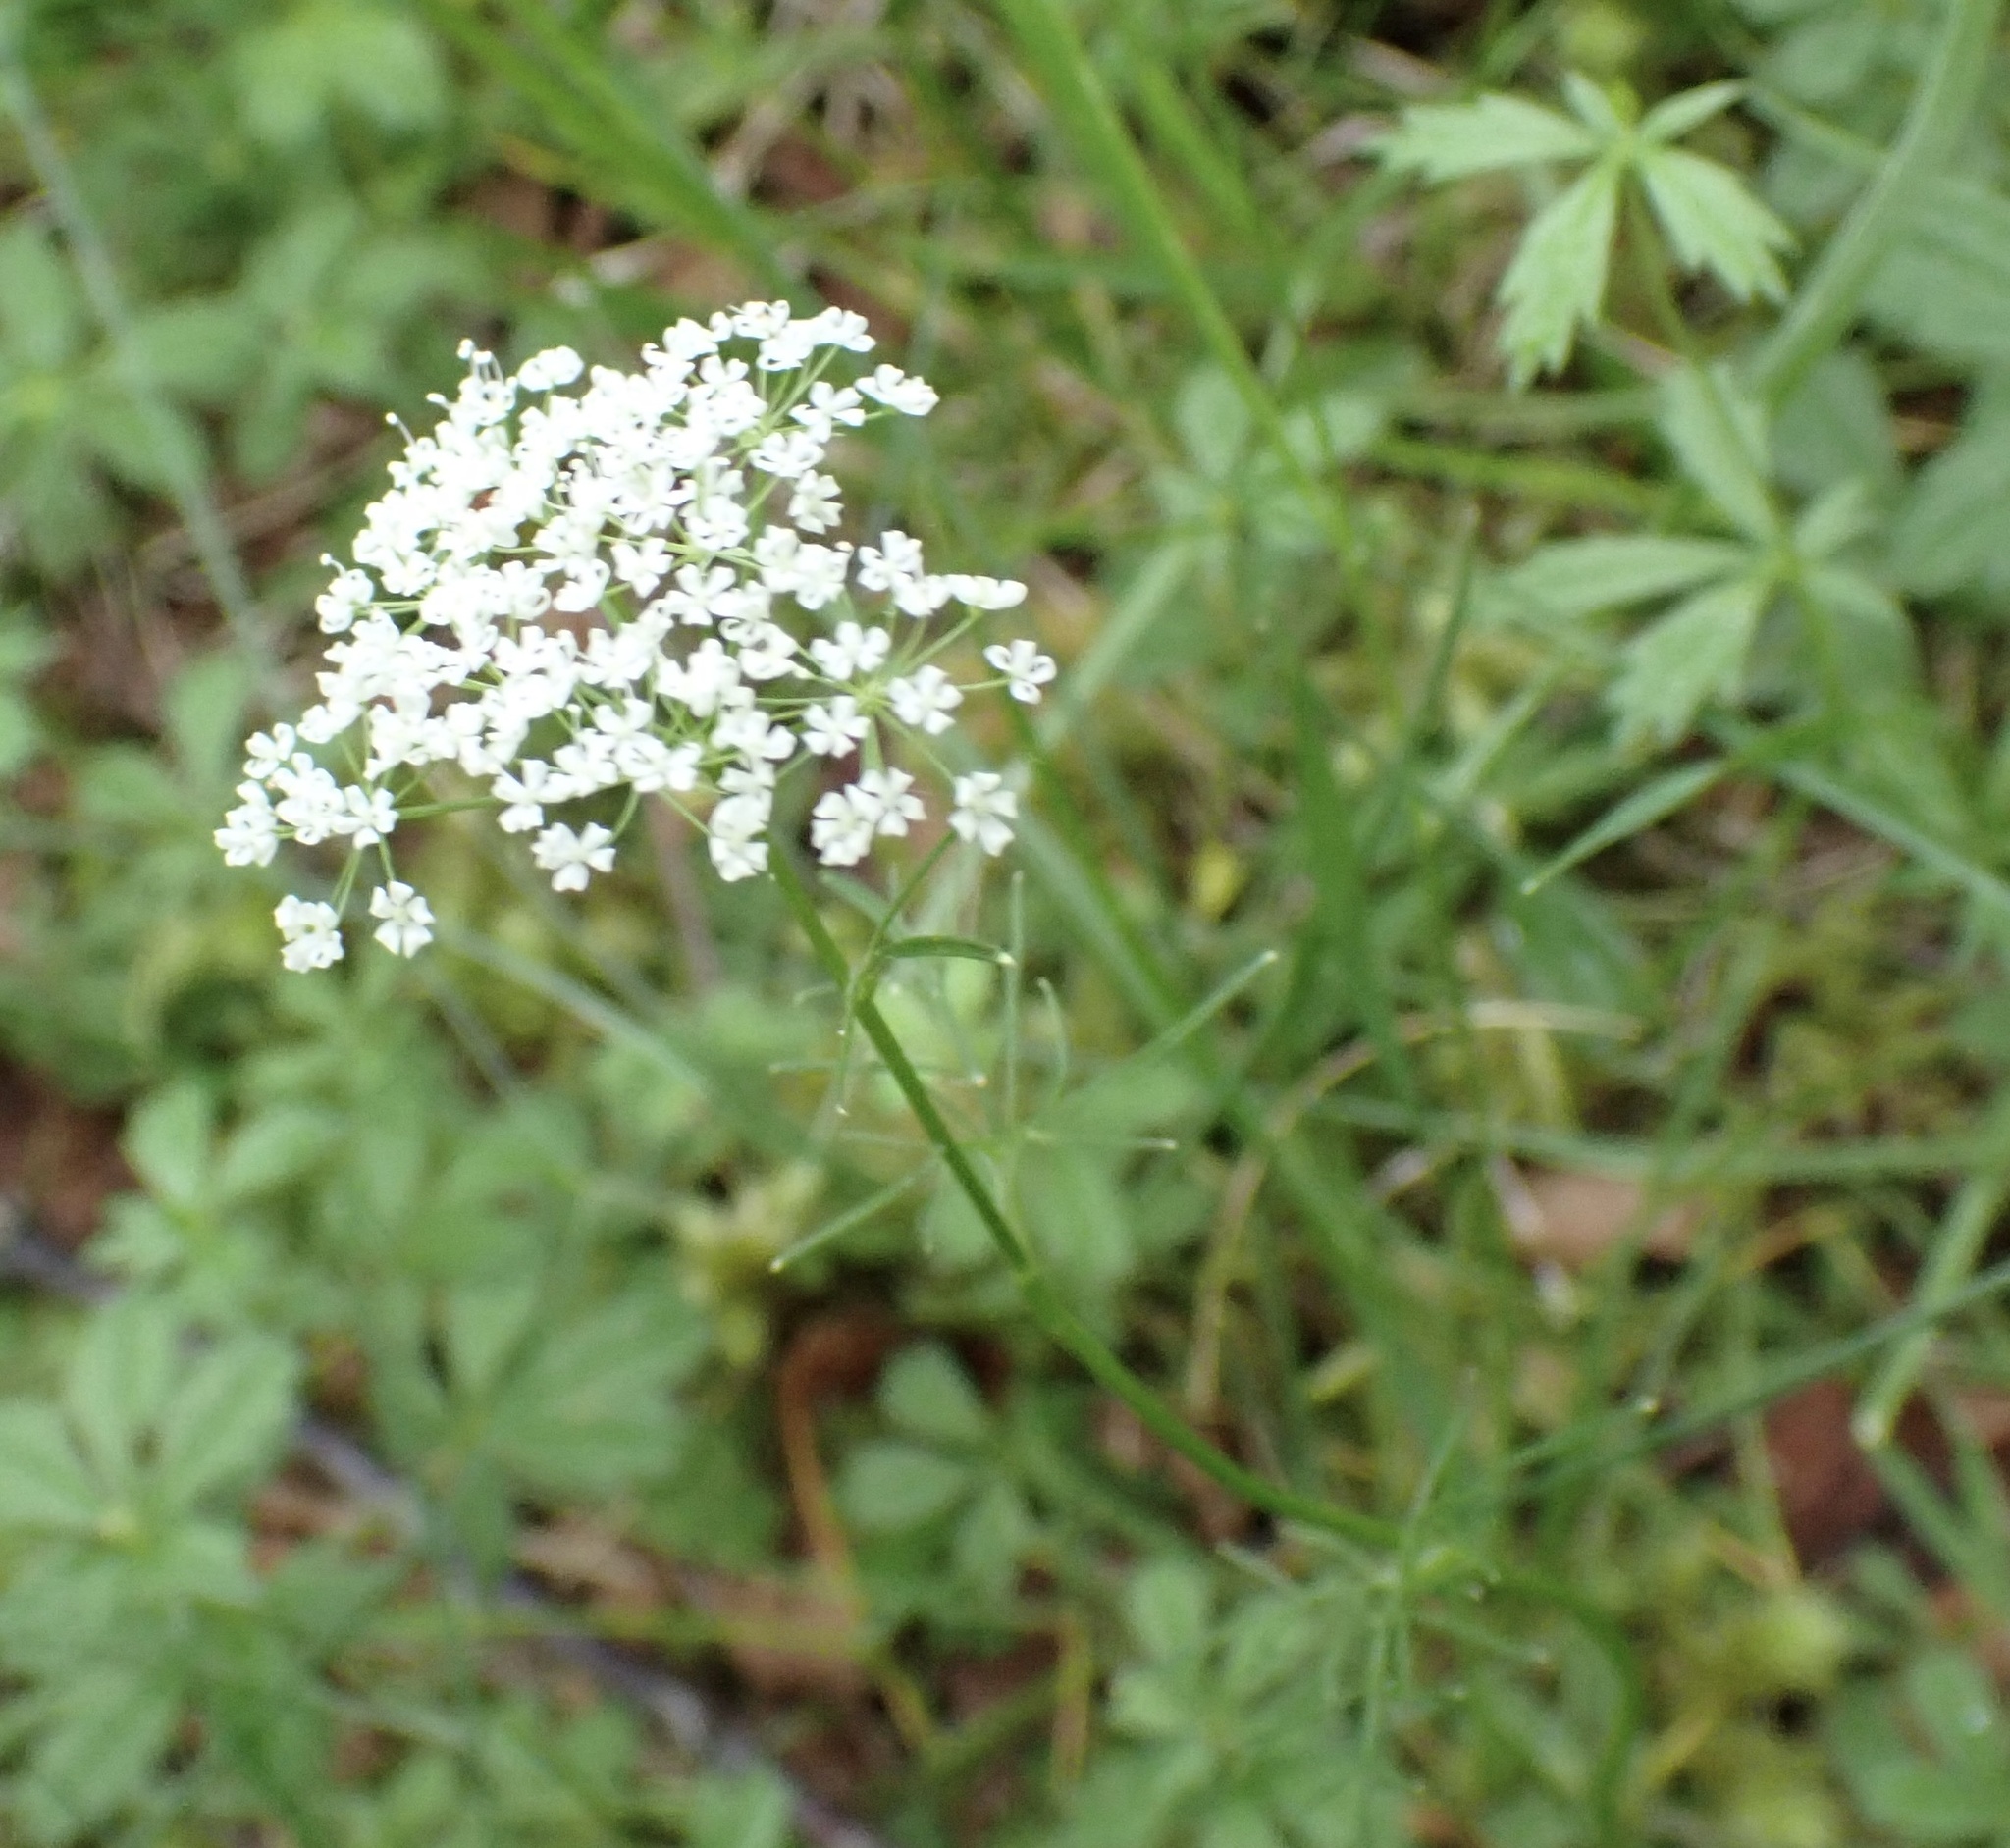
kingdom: Plantae
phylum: Tracheophyta
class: Magnoliopsida
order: Apiales
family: Apiaceae
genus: Conopodium
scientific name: Conopodium majus
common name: Pignut
